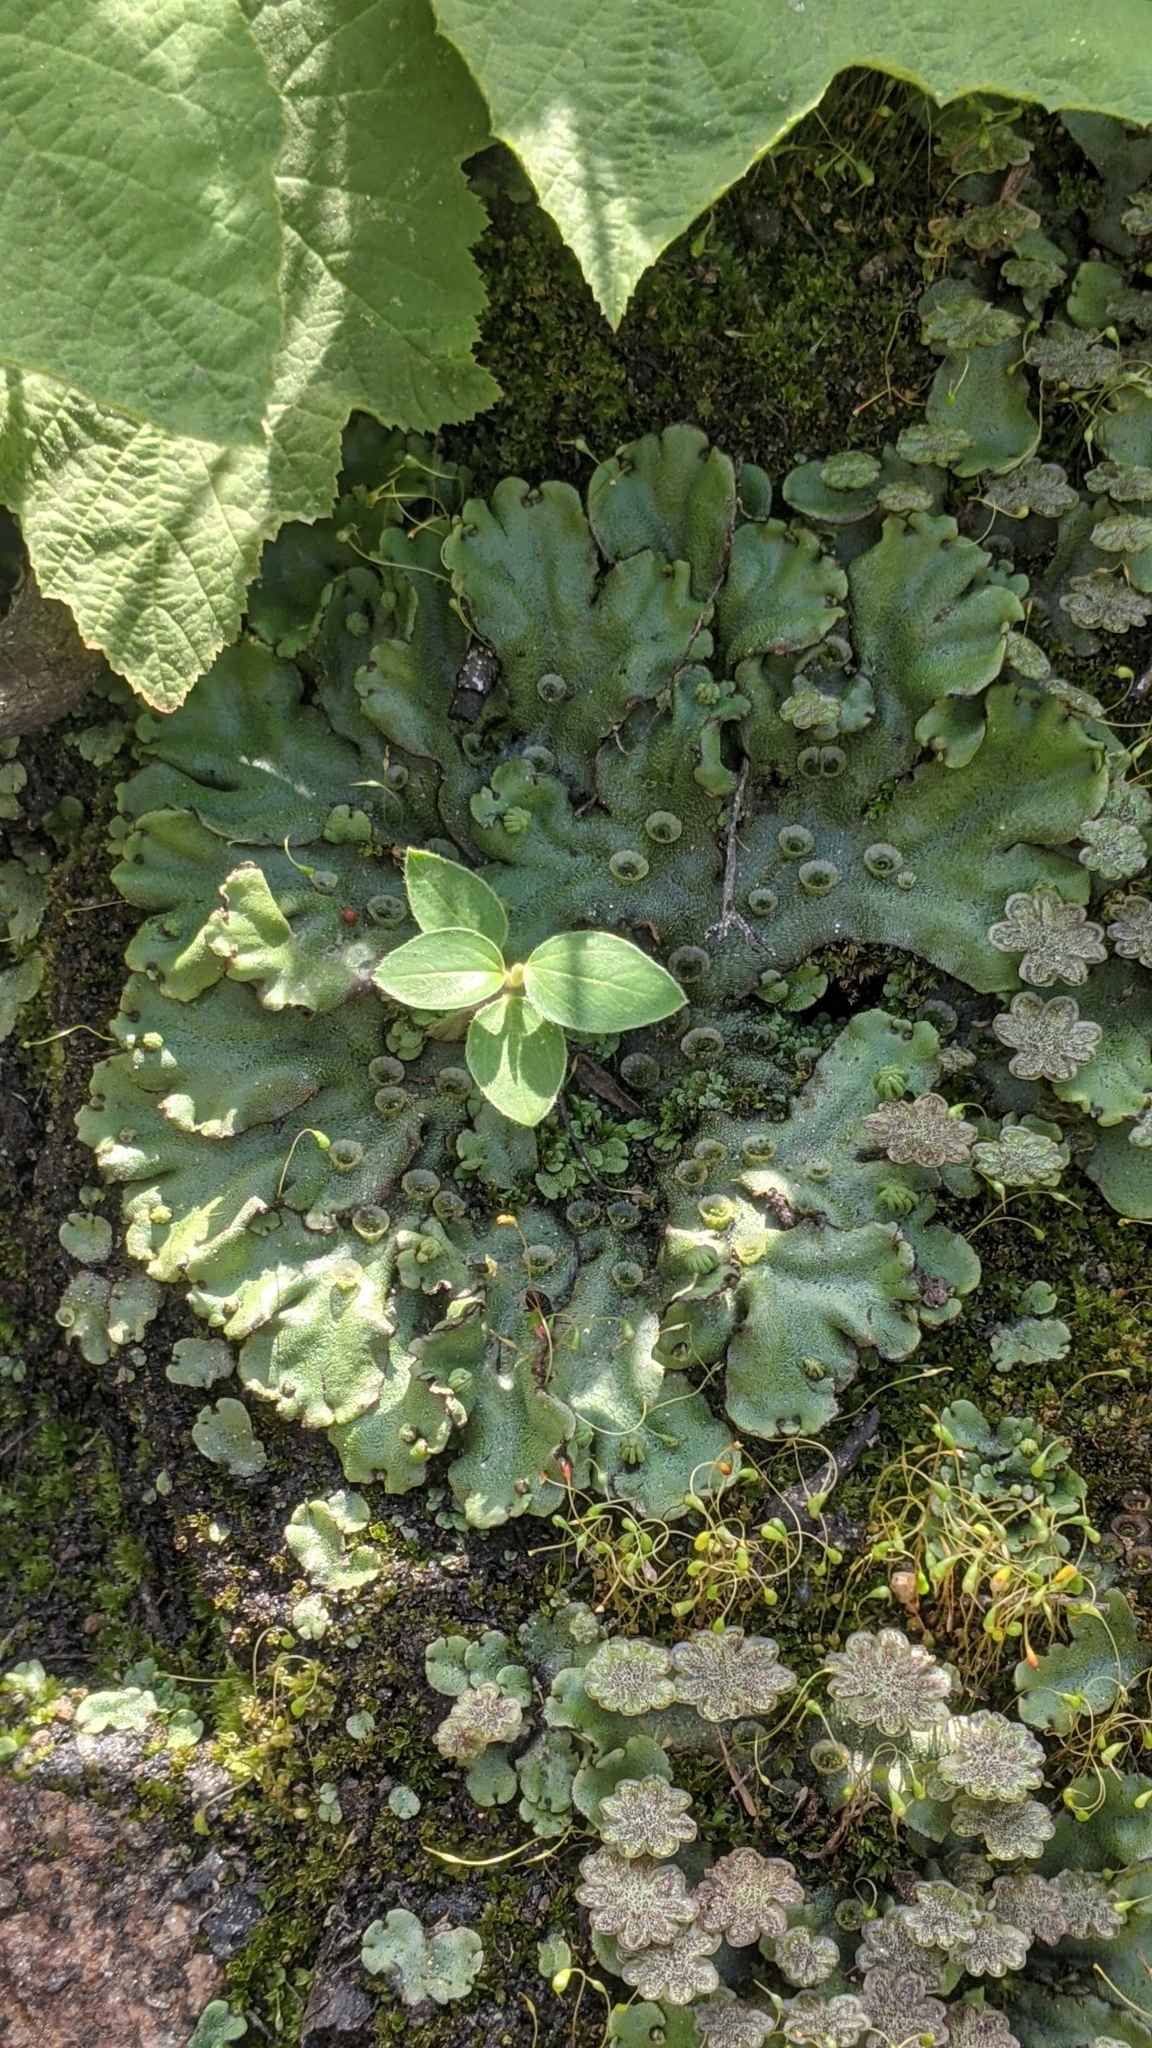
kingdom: Plantae
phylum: Marchantiophyta
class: Marchantiopsida
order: Marchantiales
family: Marchantiaceae
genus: Marchantia
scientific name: Marchantia polymorpha
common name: Common liverwort
